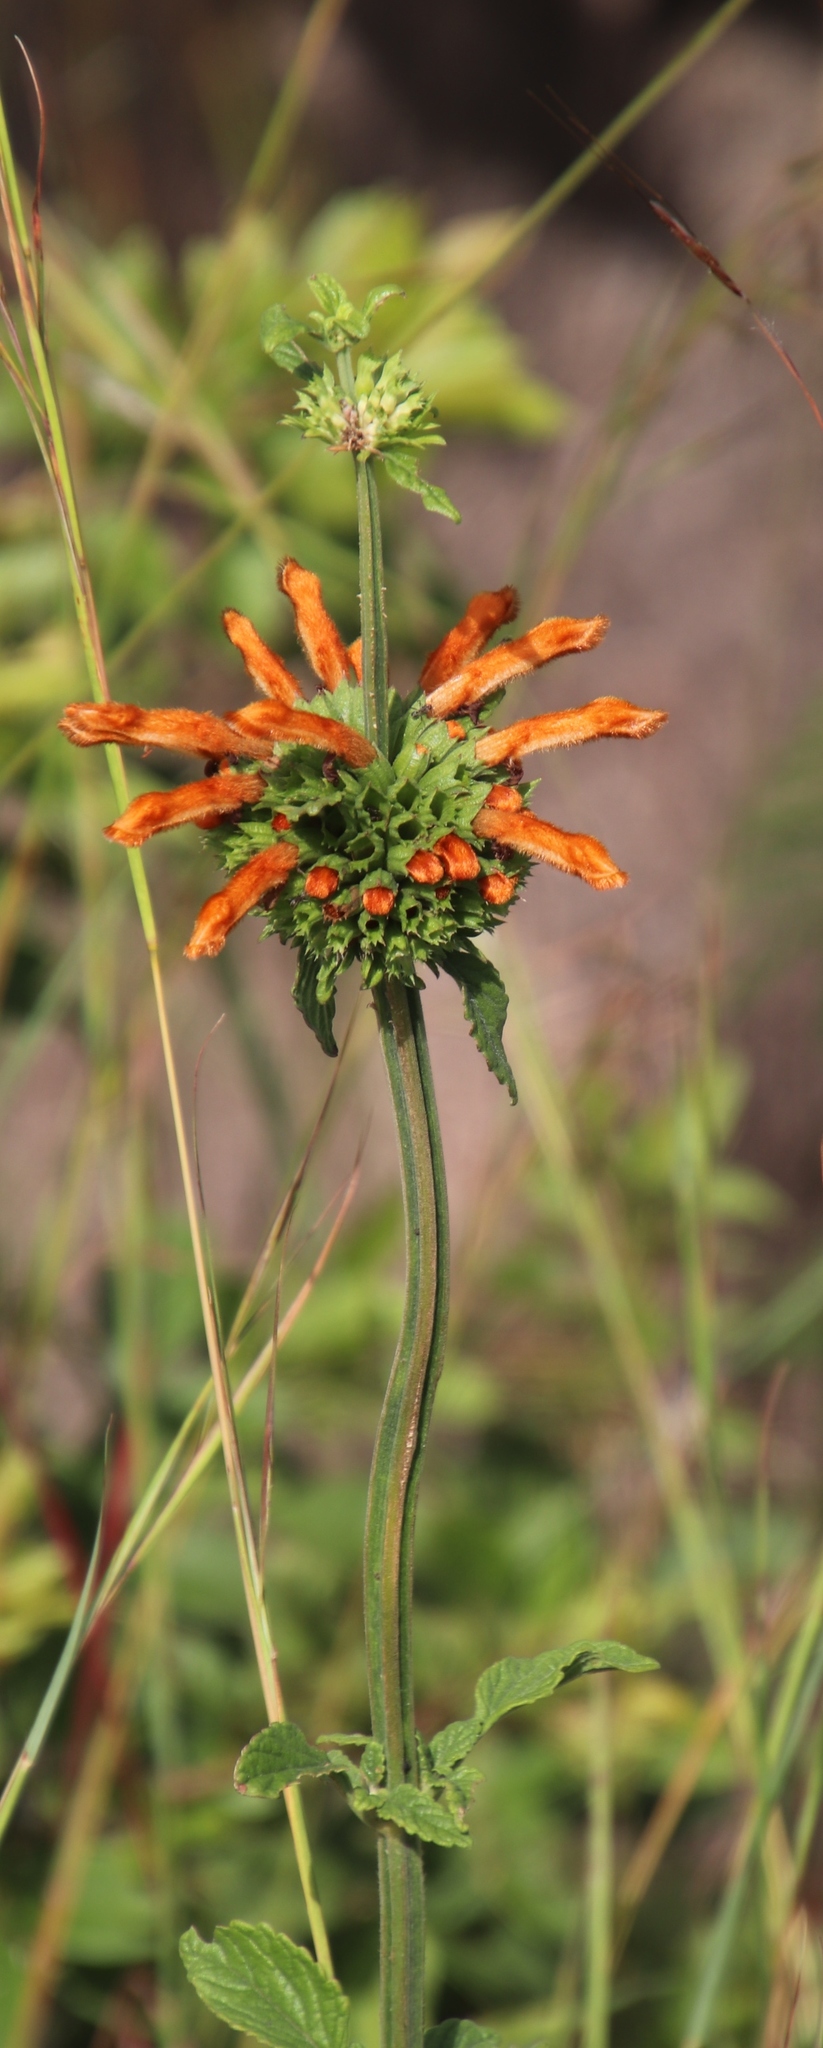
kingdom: Plantae
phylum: Tracheophyta
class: Magnoliopsida
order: Lamiales
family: Lamiaceae
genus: Leonotis
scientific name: Leonotis ocymifolia
